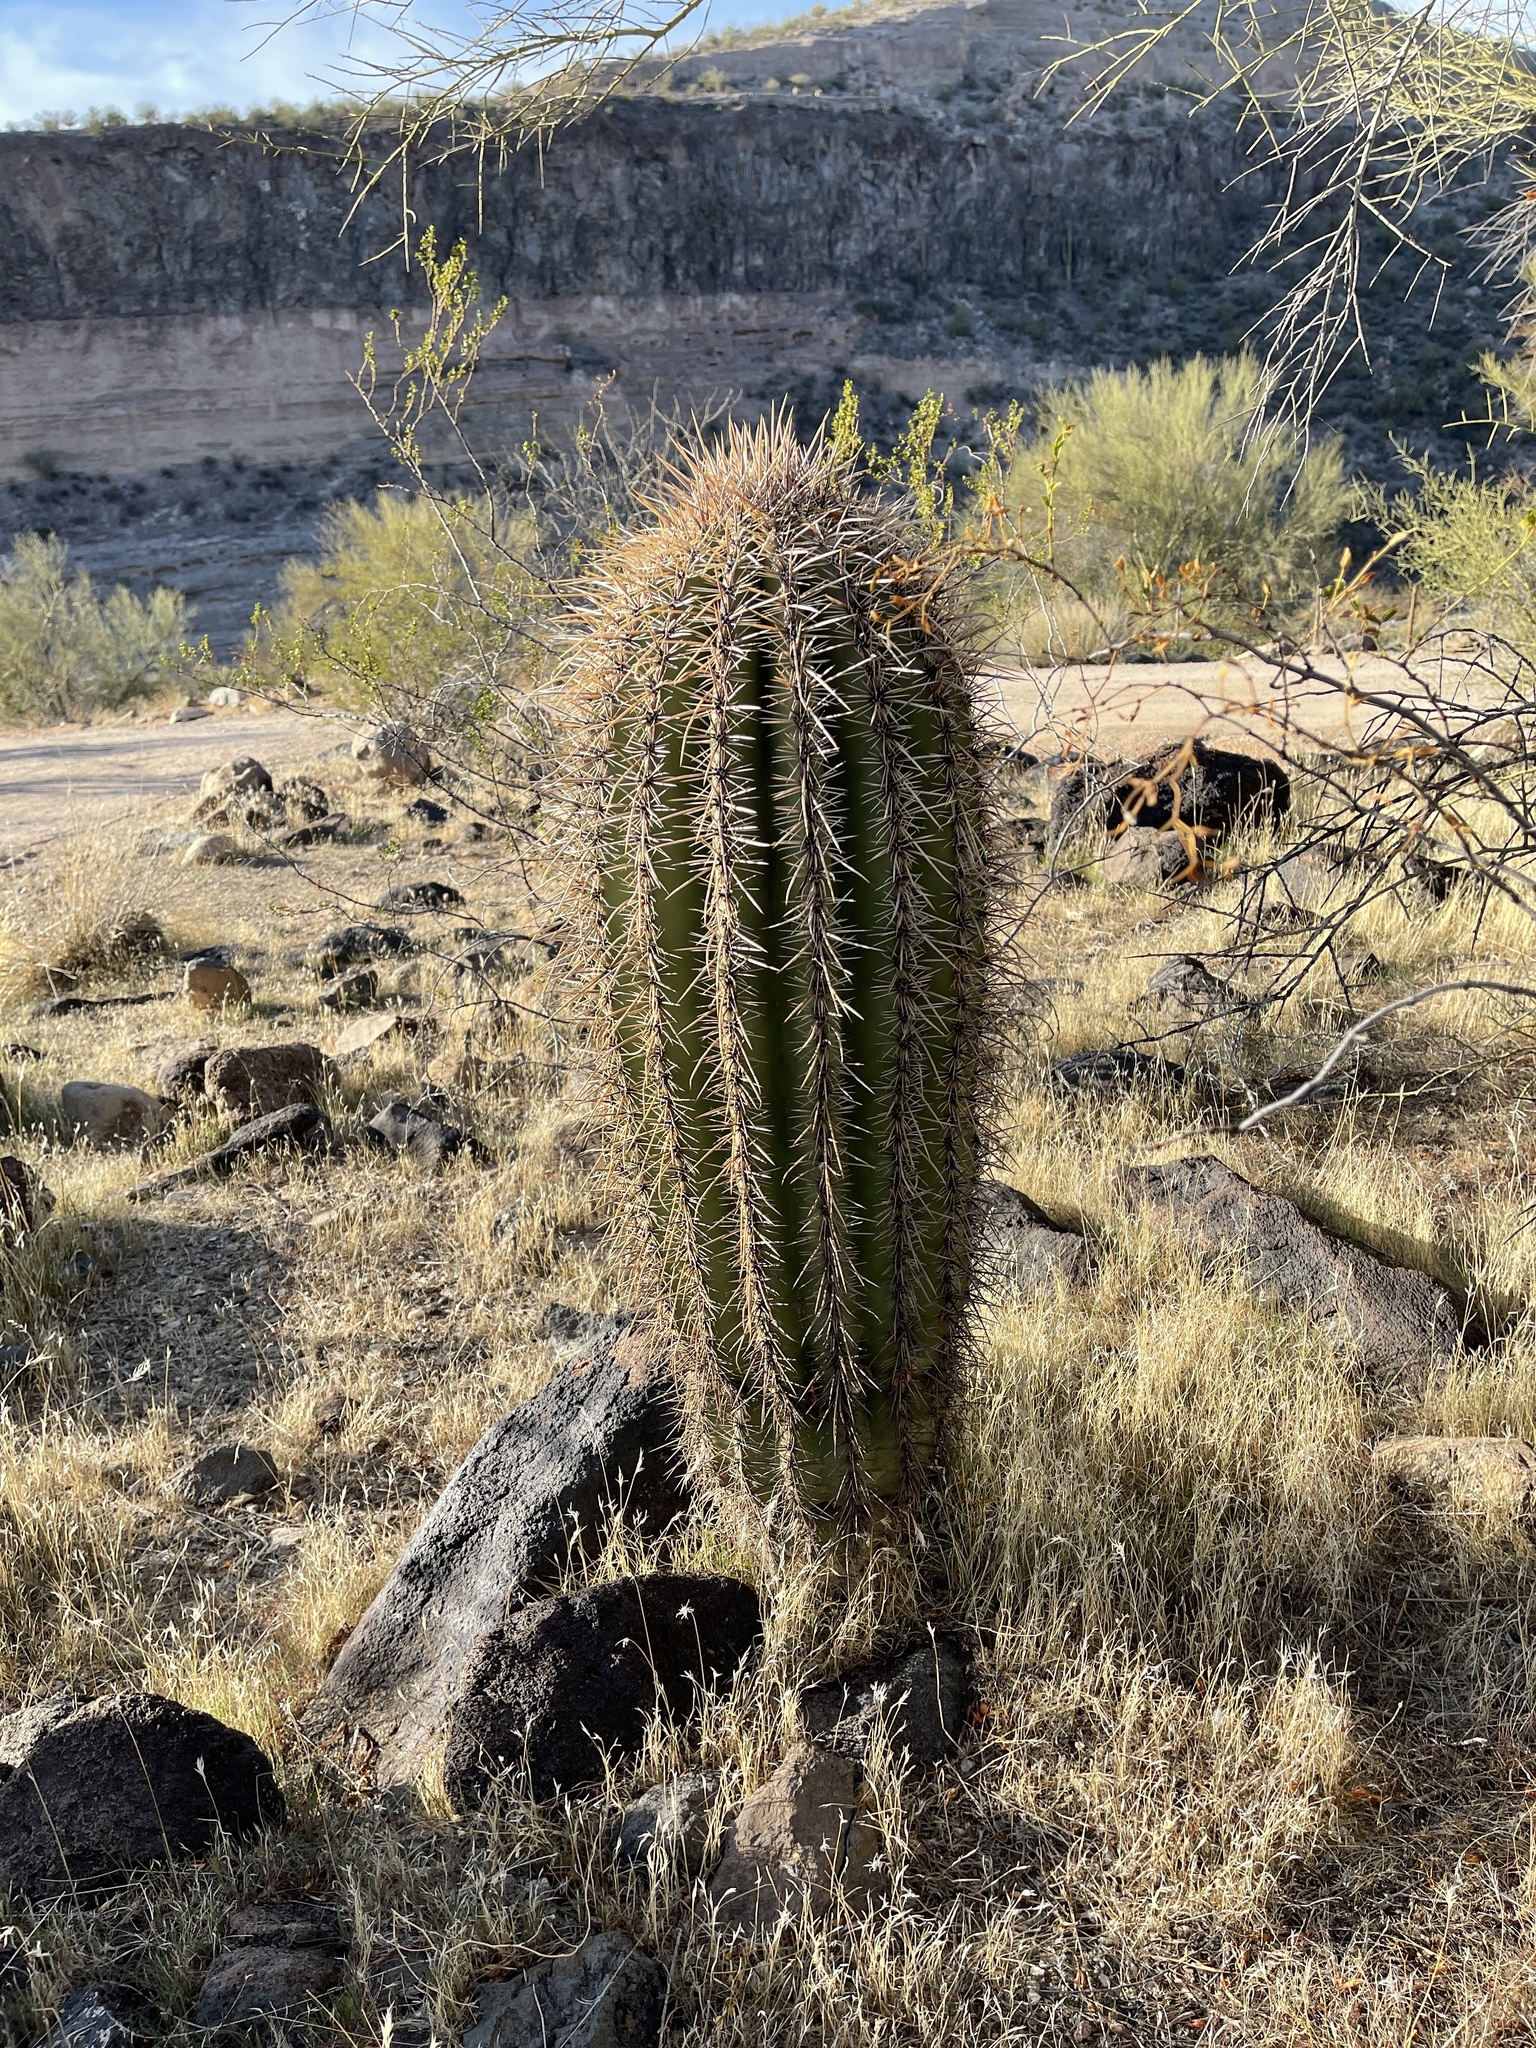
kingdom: Plantae
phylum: Tracheophyta
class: Magnoliopsida
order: Caryophyllales
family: Cactaceae
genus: Carnegiea
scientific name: Carnegiea gigantea
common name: Saguaro
